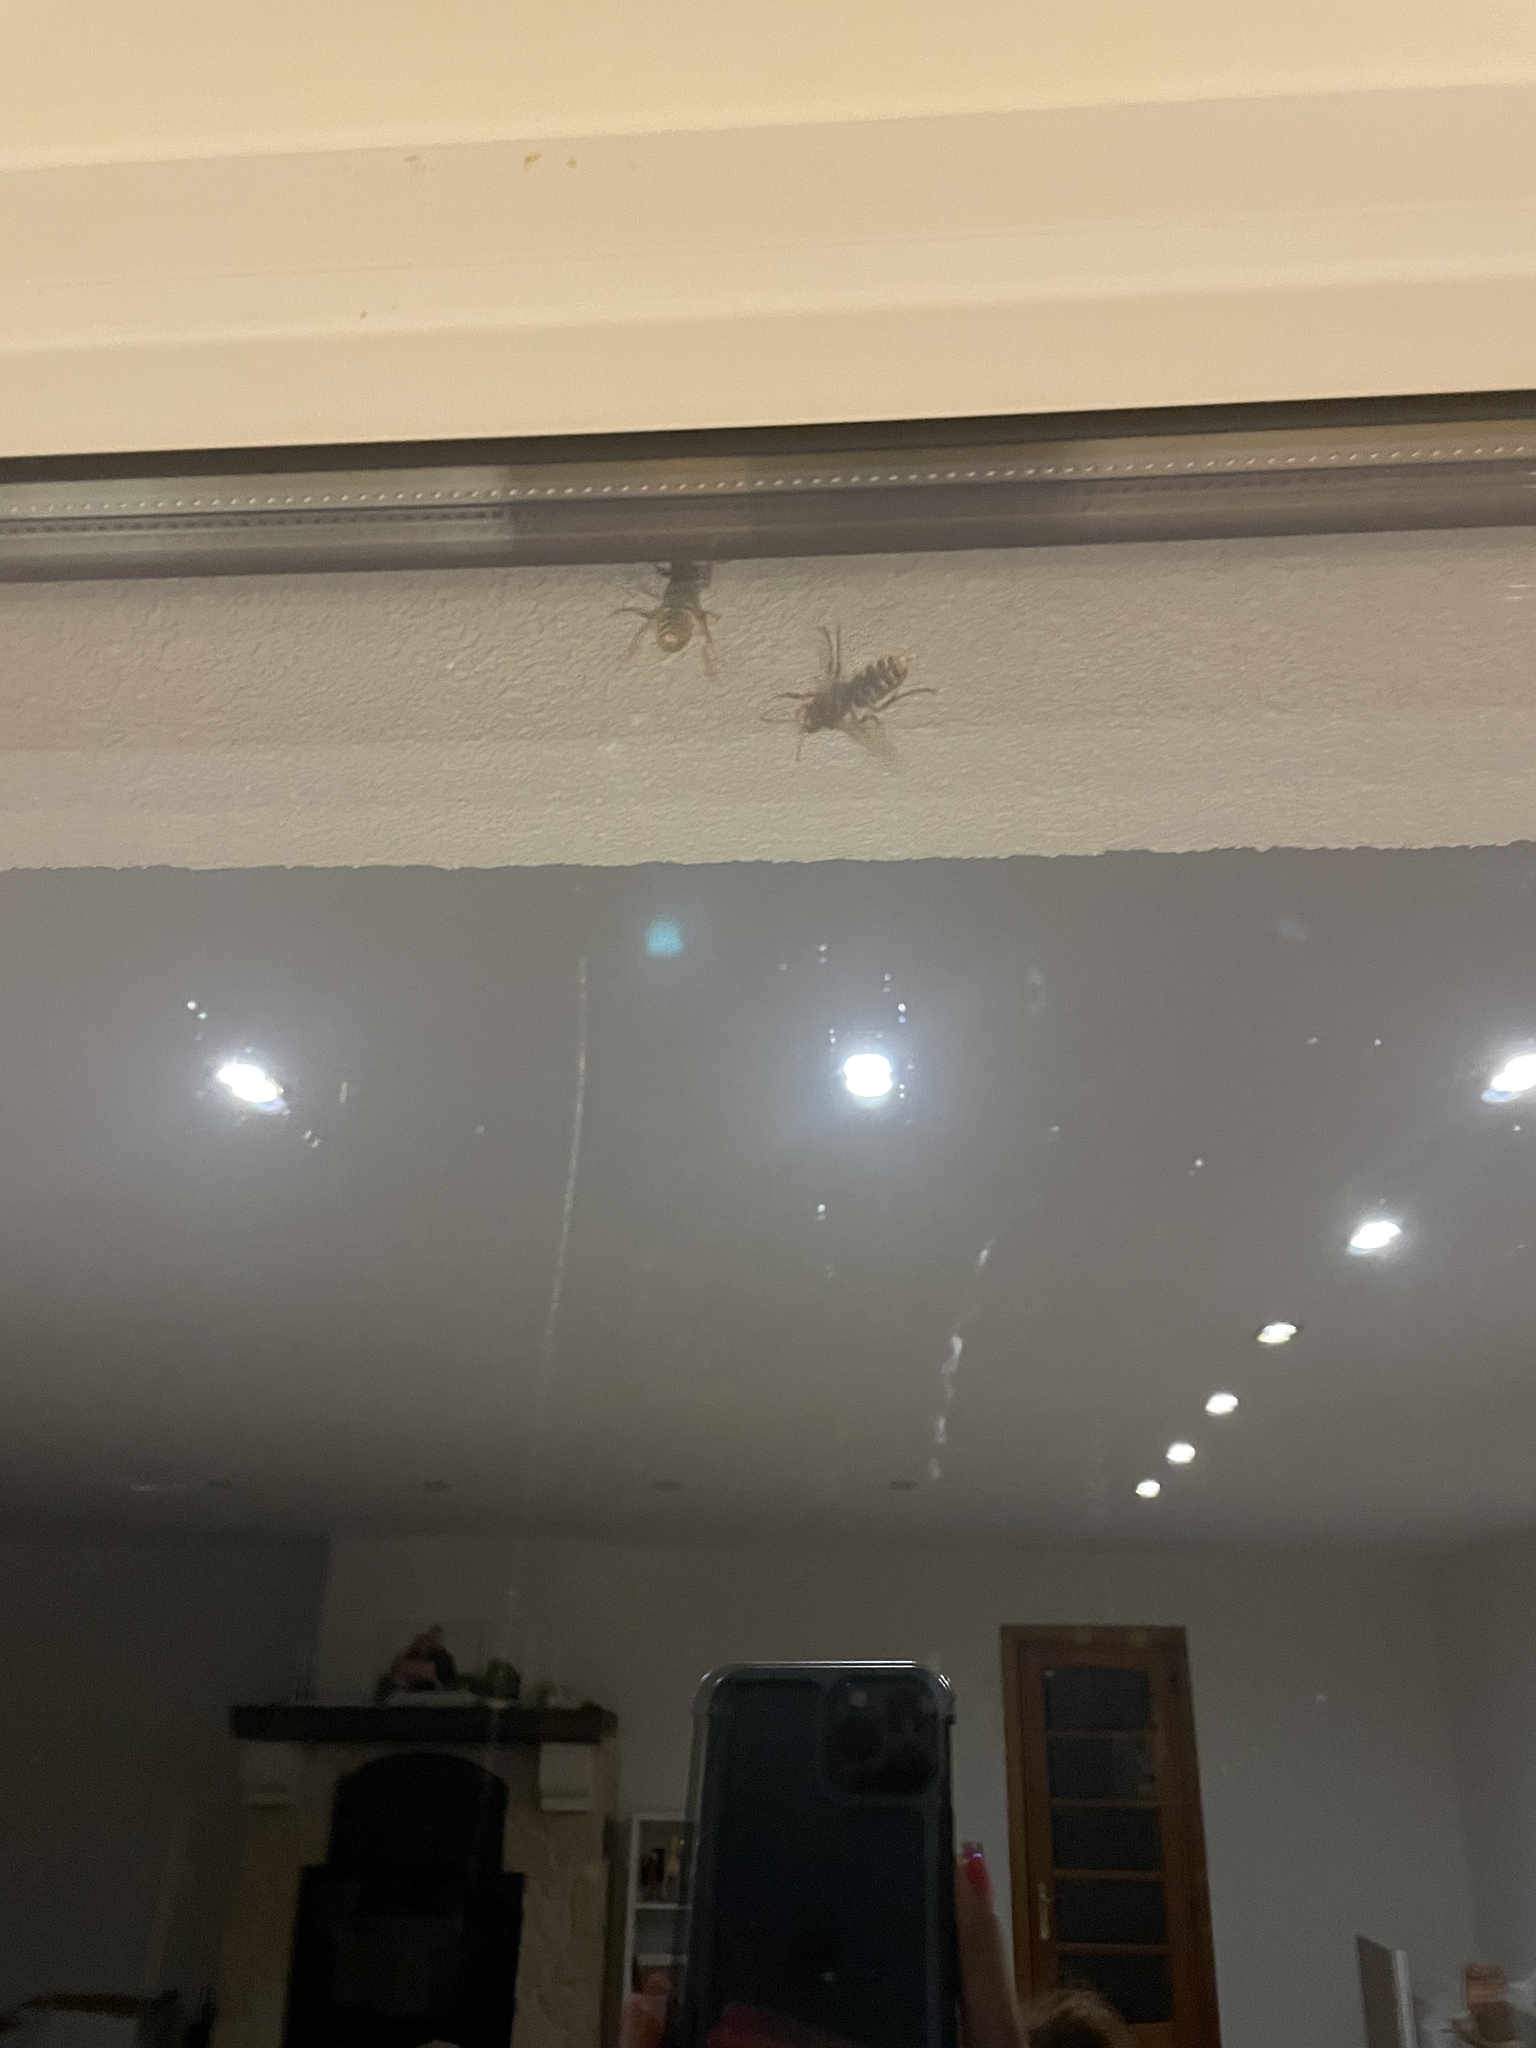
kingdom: Animalia
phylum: Arthropoda
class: Insecta
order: Hymenoptera
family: Vespidae
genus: Vespa
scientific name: Vespa crabro
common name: Hornet
